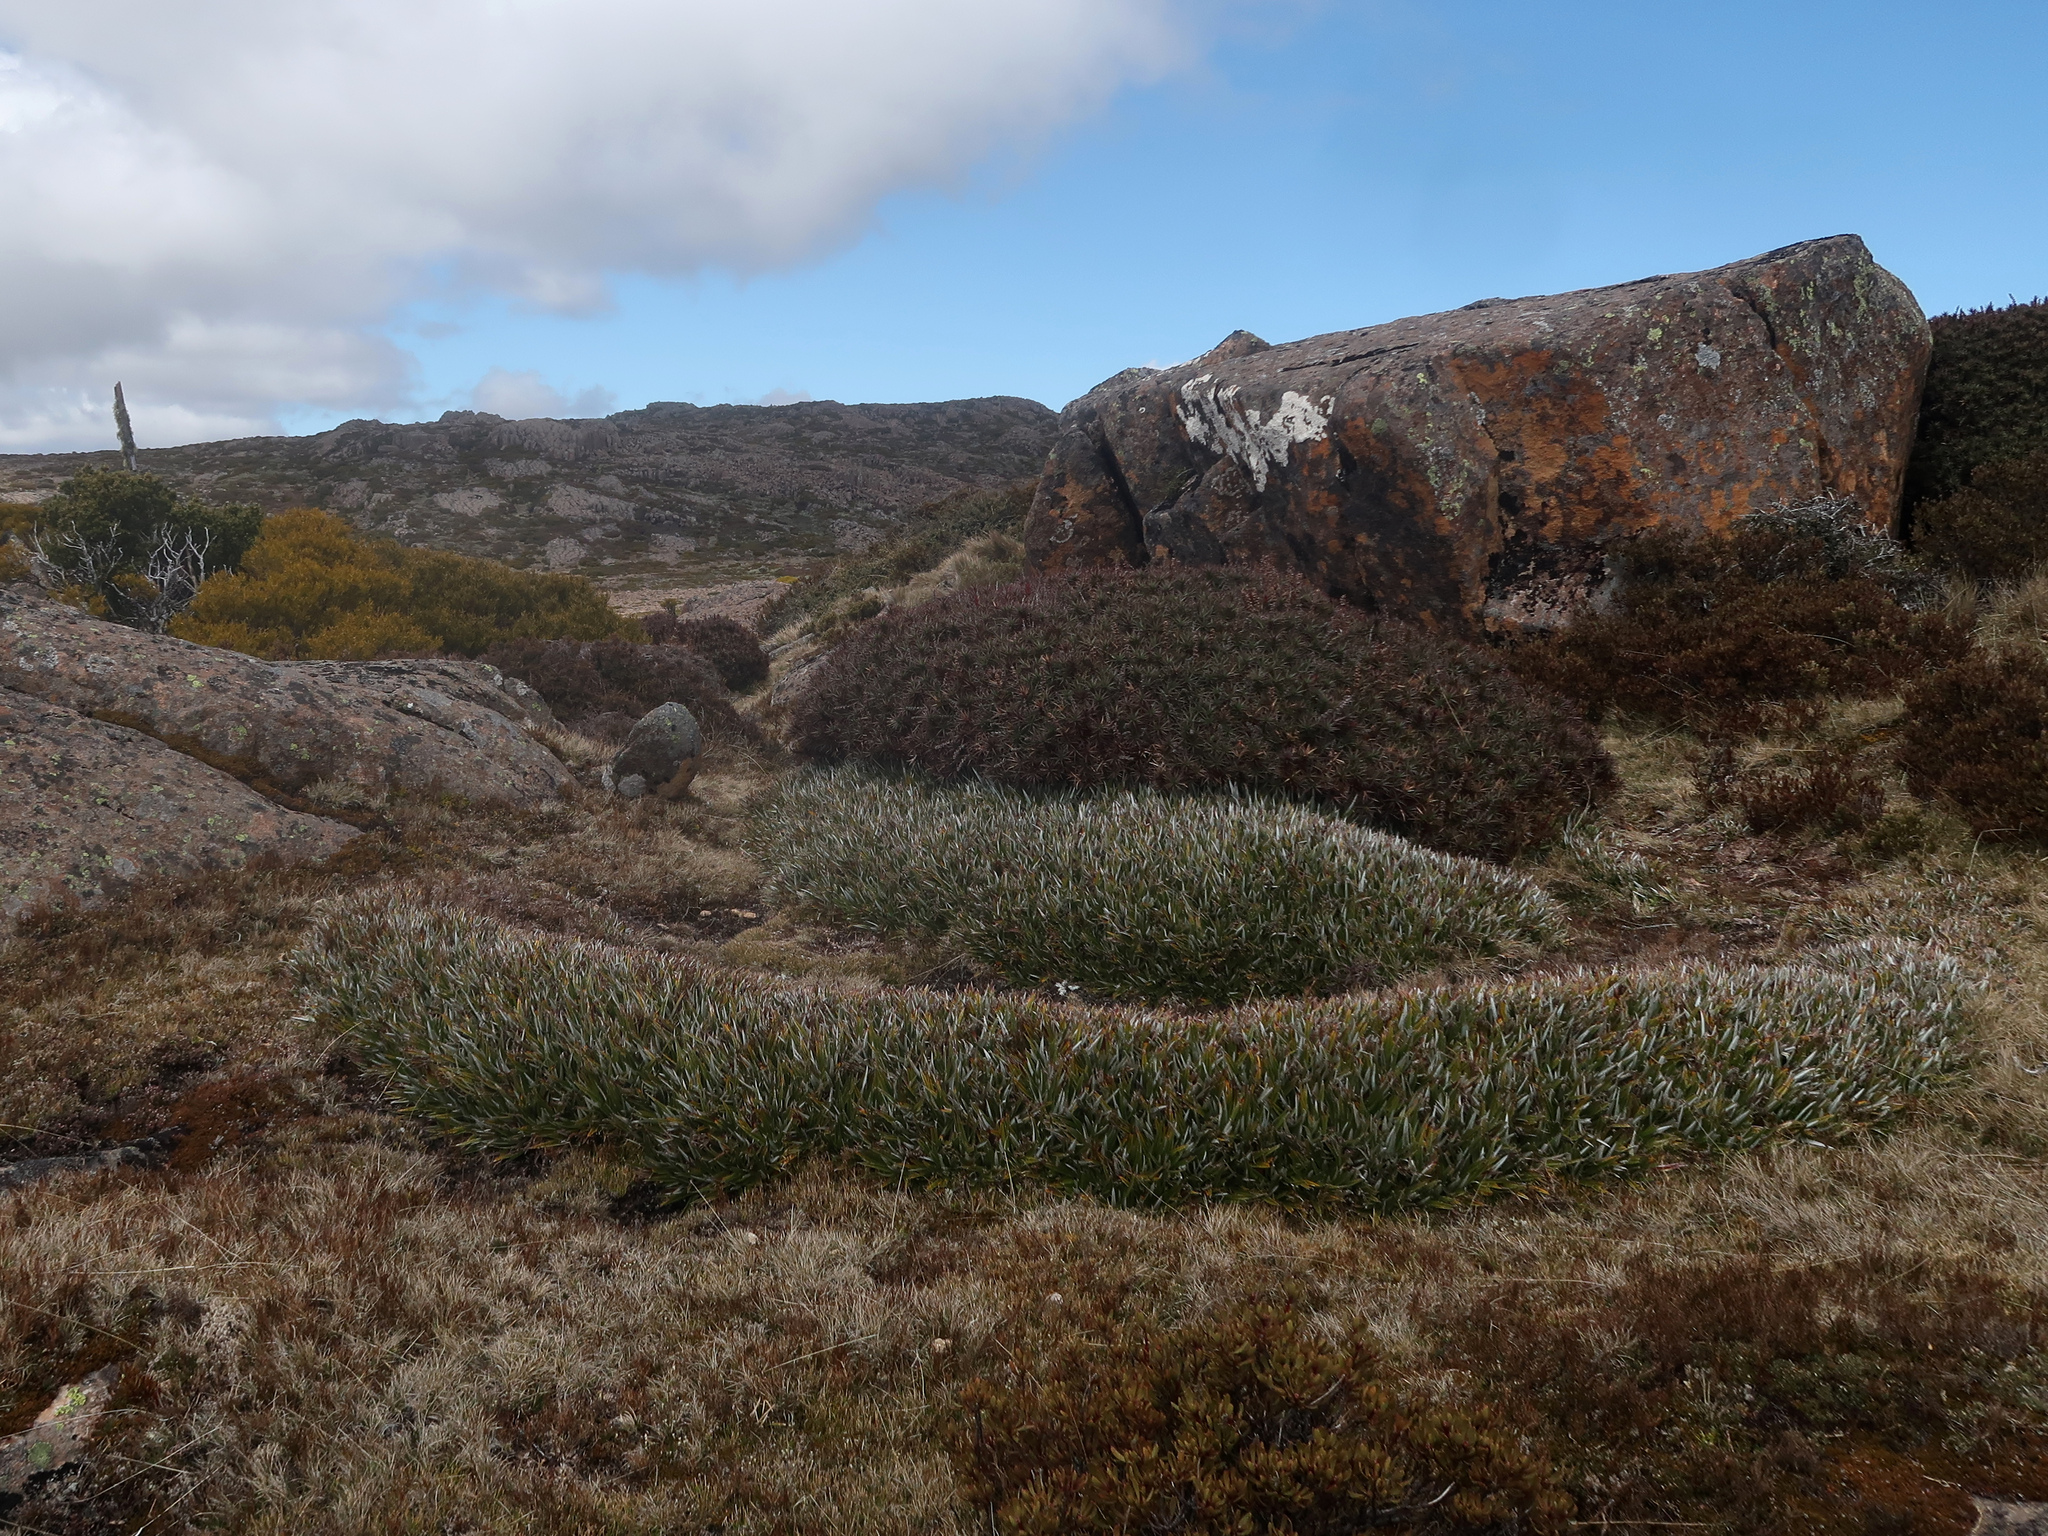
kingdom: Plantae
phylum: Tracheophyta
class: Liliopsida
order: Asparagales
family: Asteliaceae
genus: Astelia
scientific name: Astelia alpina
